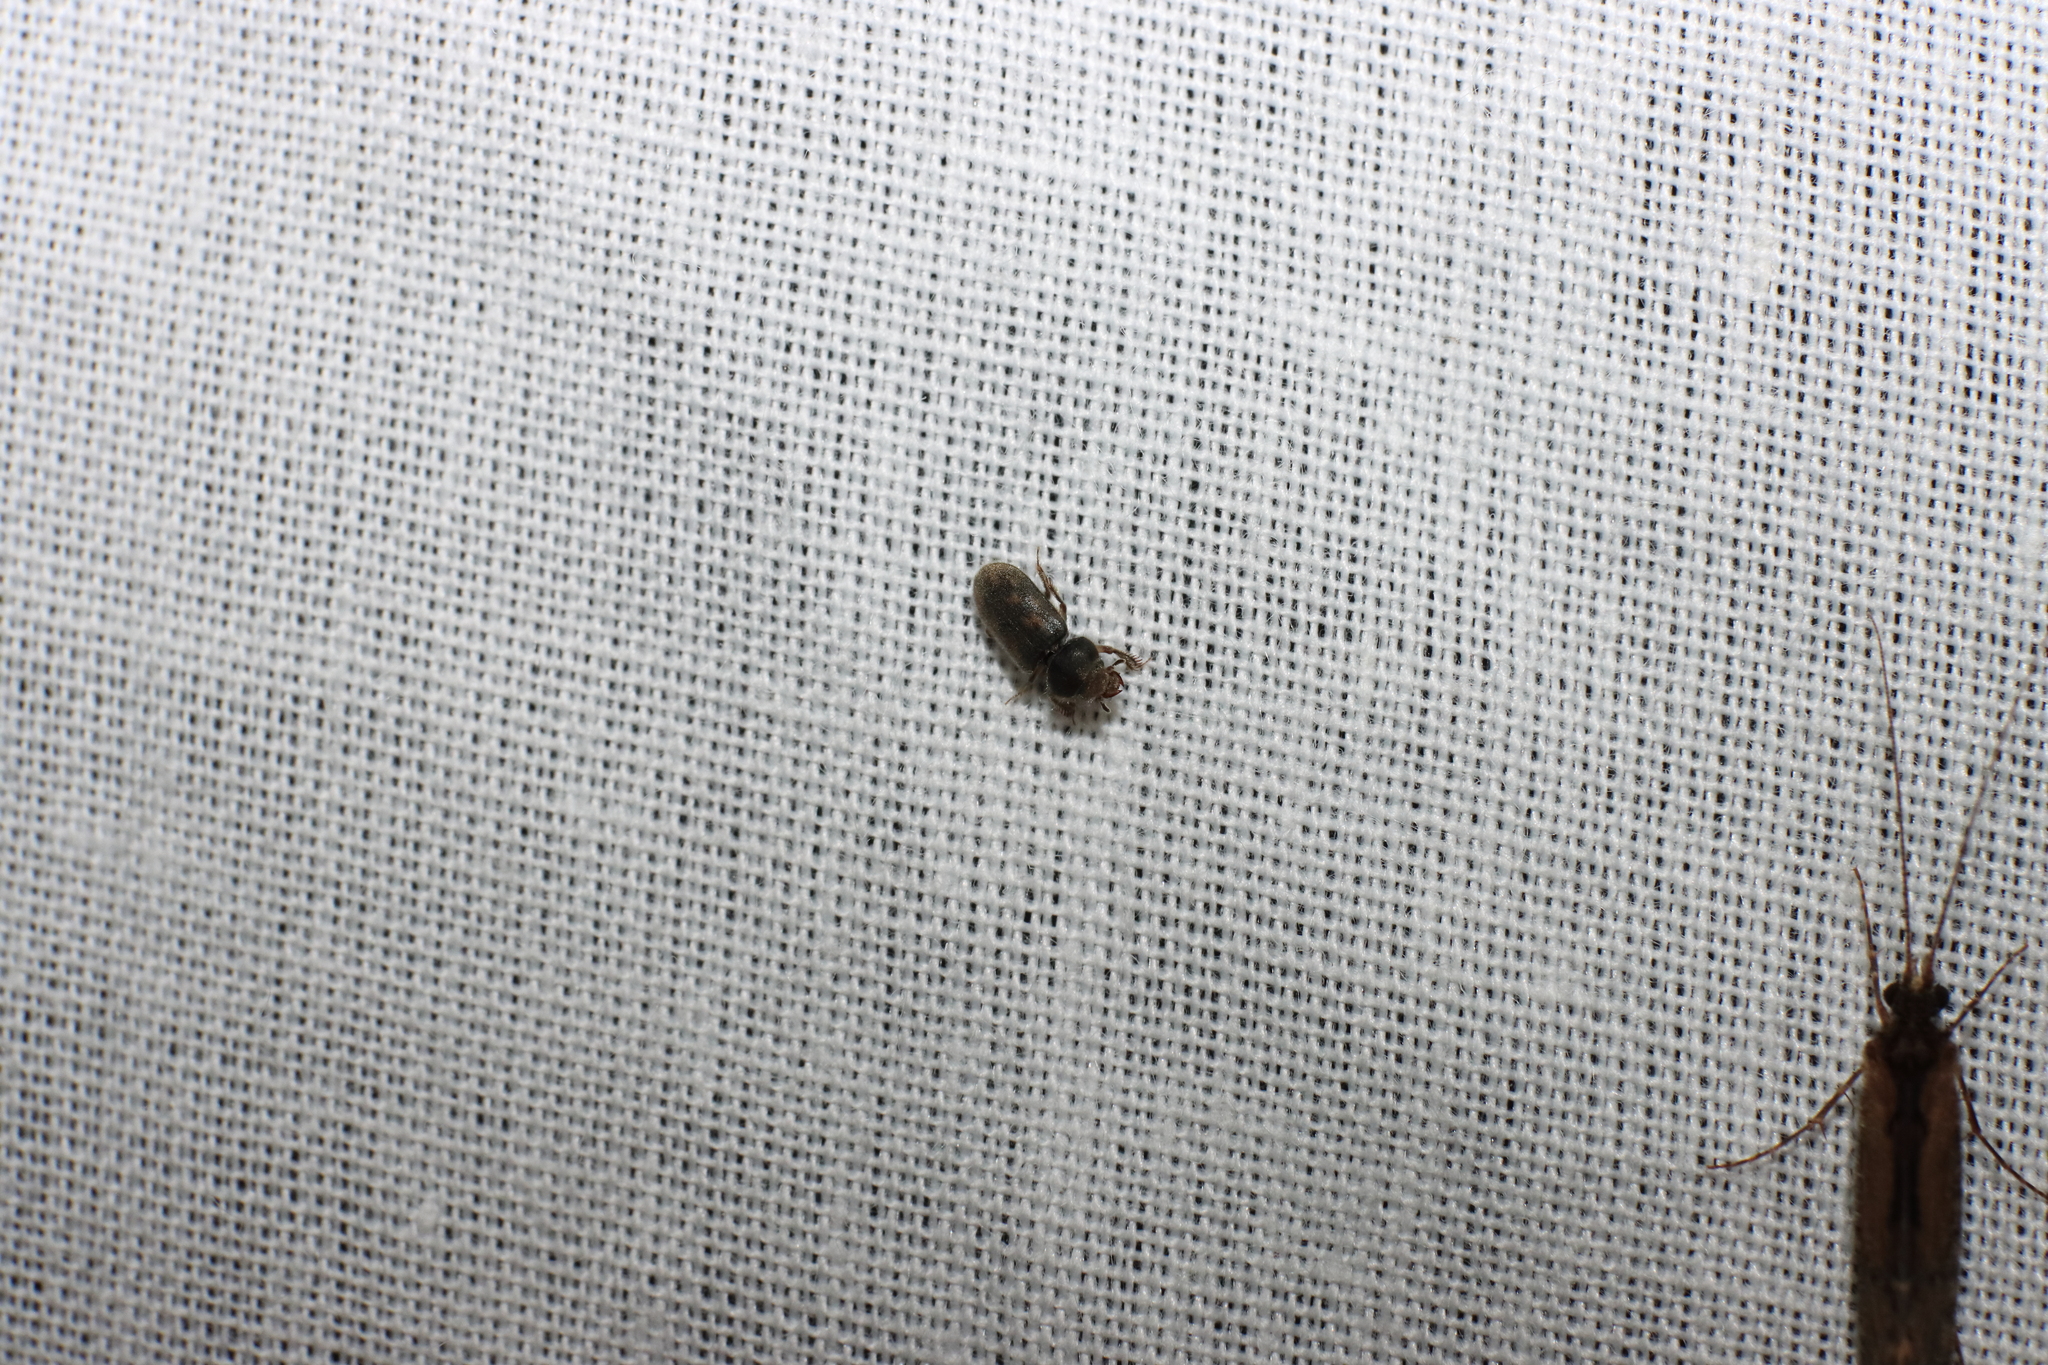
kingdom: Animalia
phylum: Arthropoda
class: Insecta
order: Coleoptera
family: Heteroceridae
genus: Heterocerus
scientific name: Heterocerus novaeselandiae
